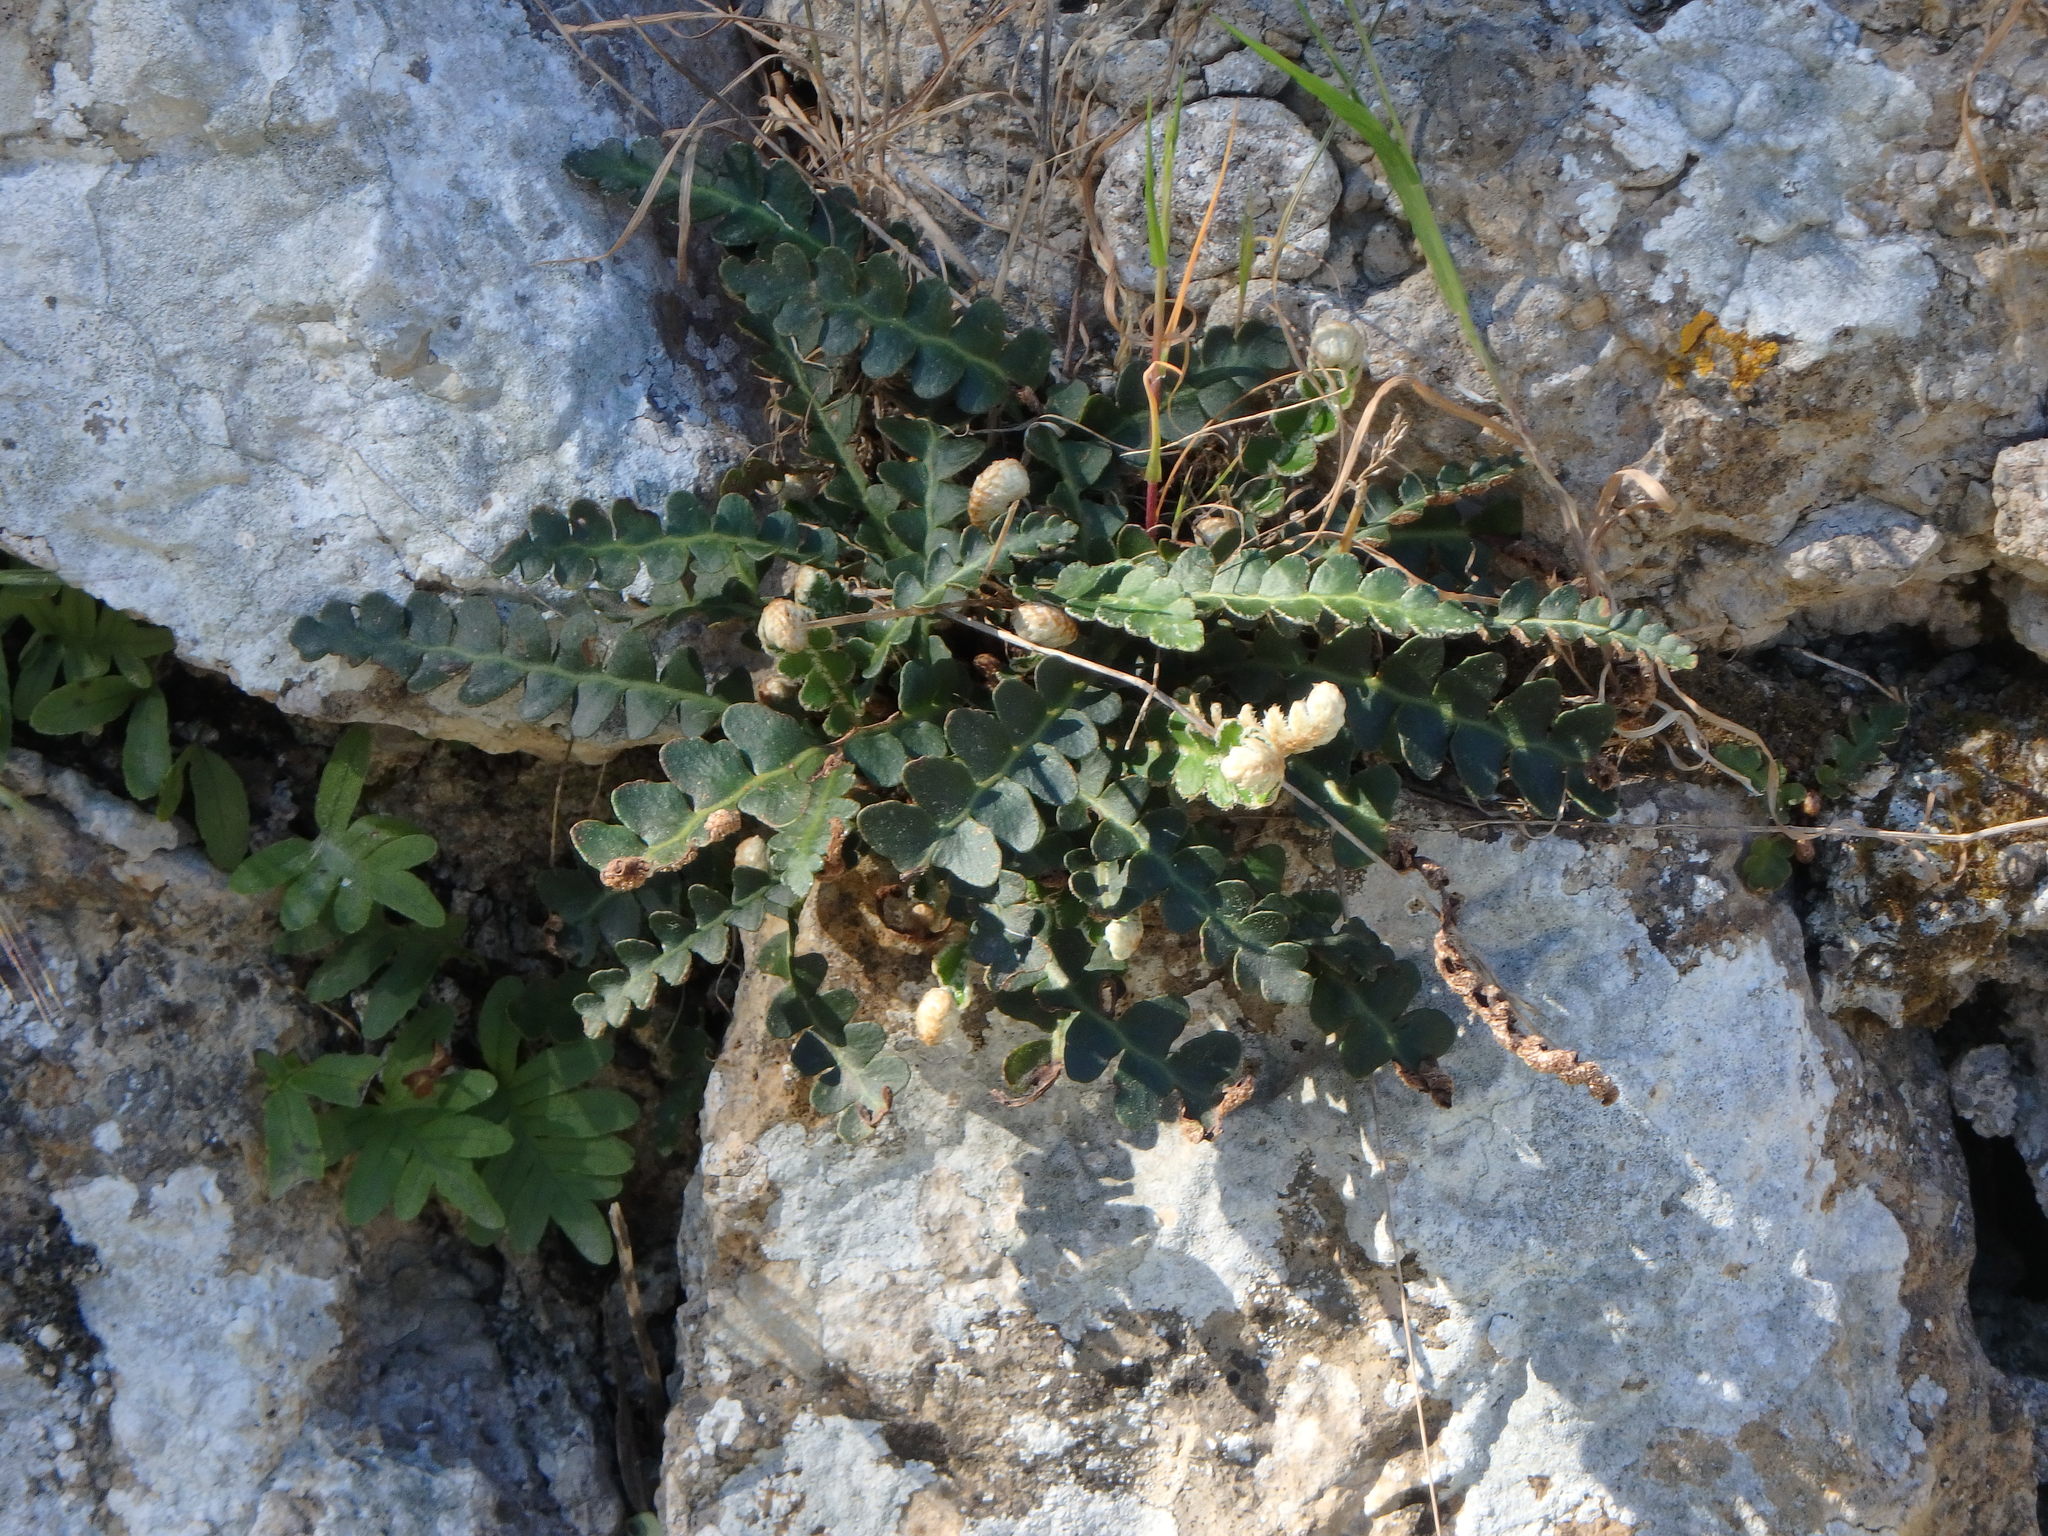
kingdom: Plantae
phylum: Tracheophyta
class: Polypodiopsida
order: Polypodiales
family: Aspleniaceae
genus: Asplenium
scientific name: Asplenium ceterach
